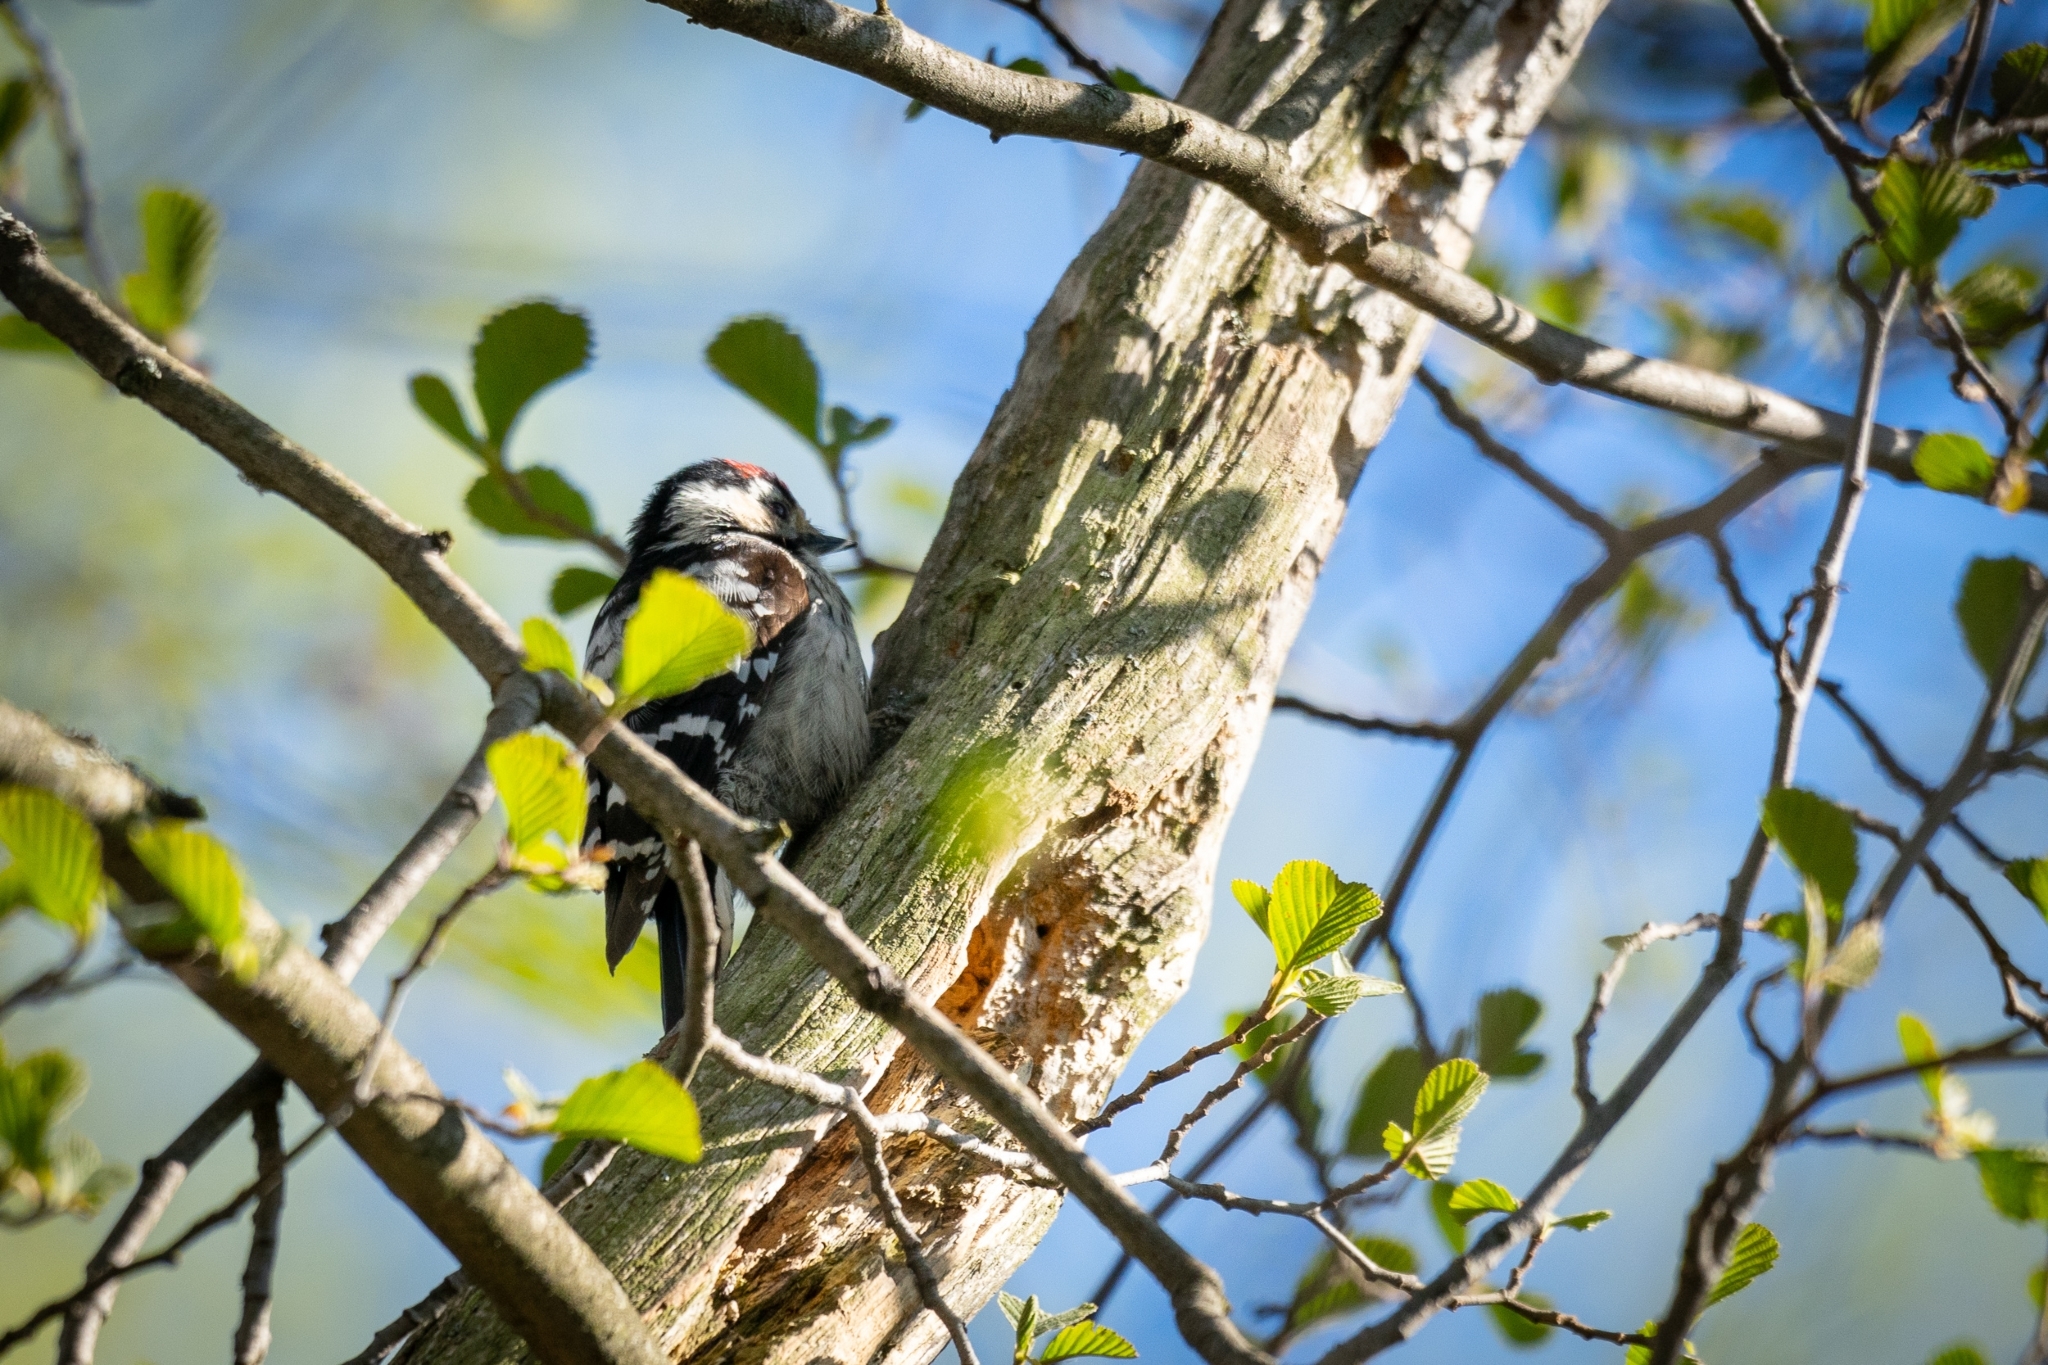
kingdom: Animalia
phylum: Chordata
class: Aves
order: Piciformes
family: Picidae
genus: Dryobates
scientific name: Dryobates minor
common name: Lesser spotted woodpecker
